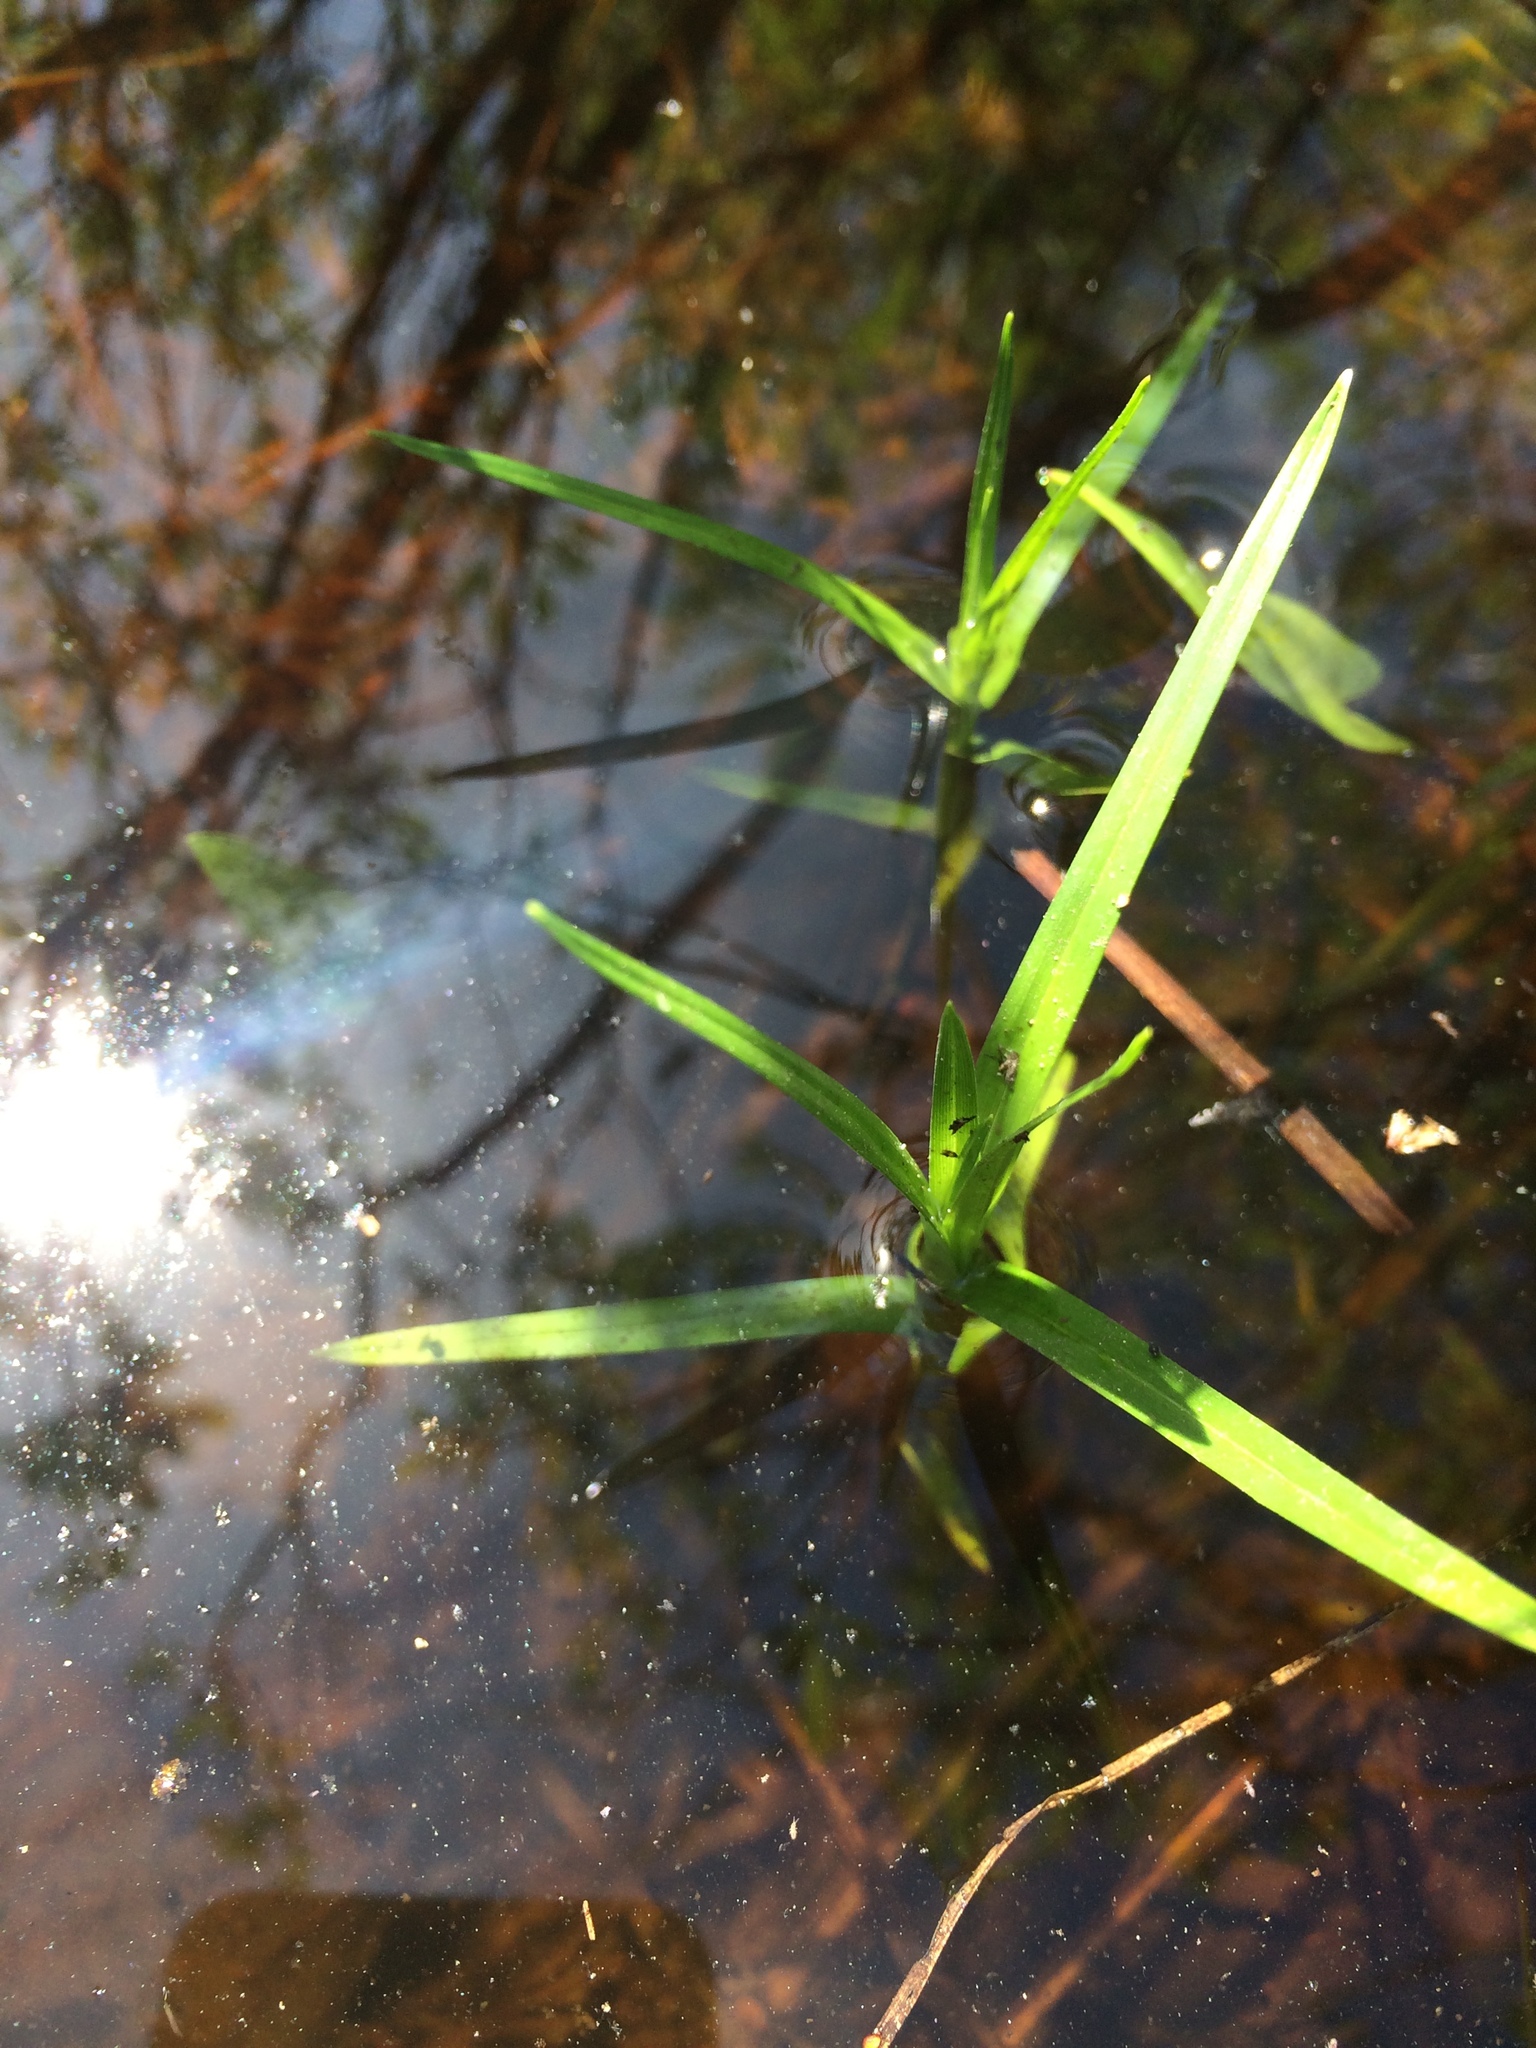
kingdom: Plantae
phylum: Tracheophyta
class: Liliopsida
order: Poales
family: Cyperaceae
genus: Dulichium
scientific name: Dulichium arundinaceum
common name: Three-way sedge
